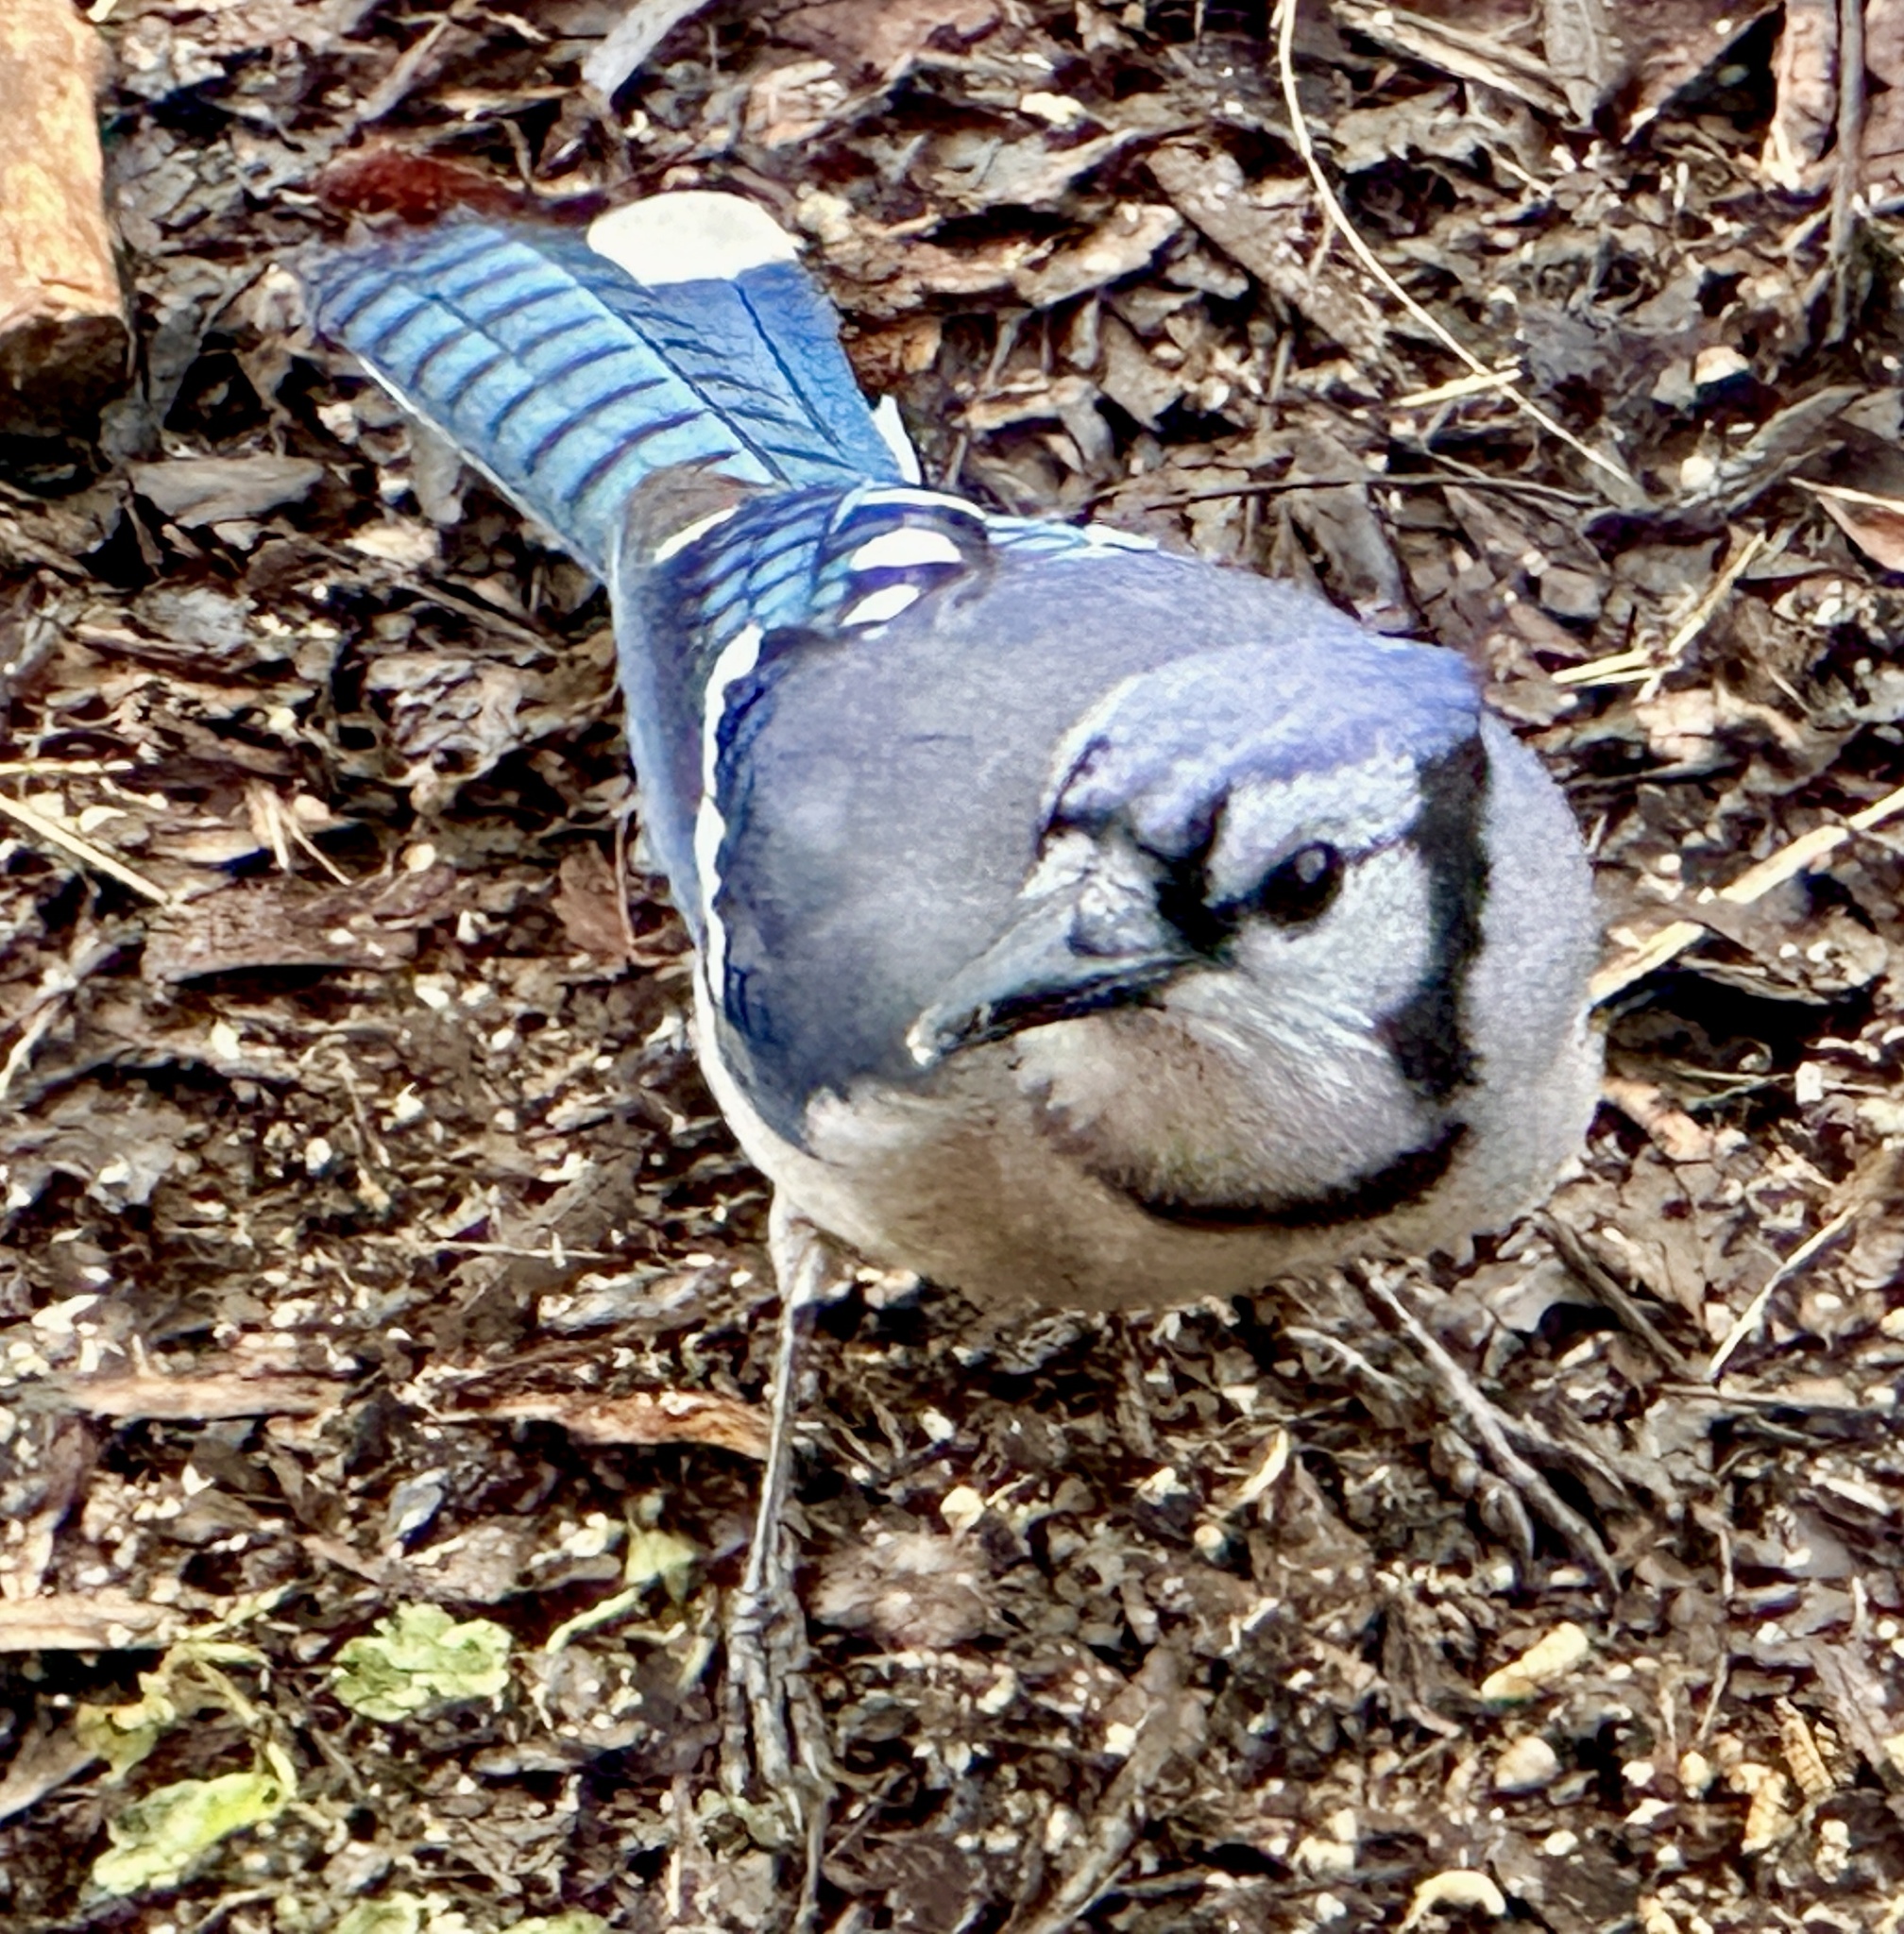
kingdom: Animalia
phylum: Chordata
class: Aves
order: Passeriformes
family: Corvidae
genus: Cyanocitta
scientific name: Cyanocitta cristata
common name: Blue jay
